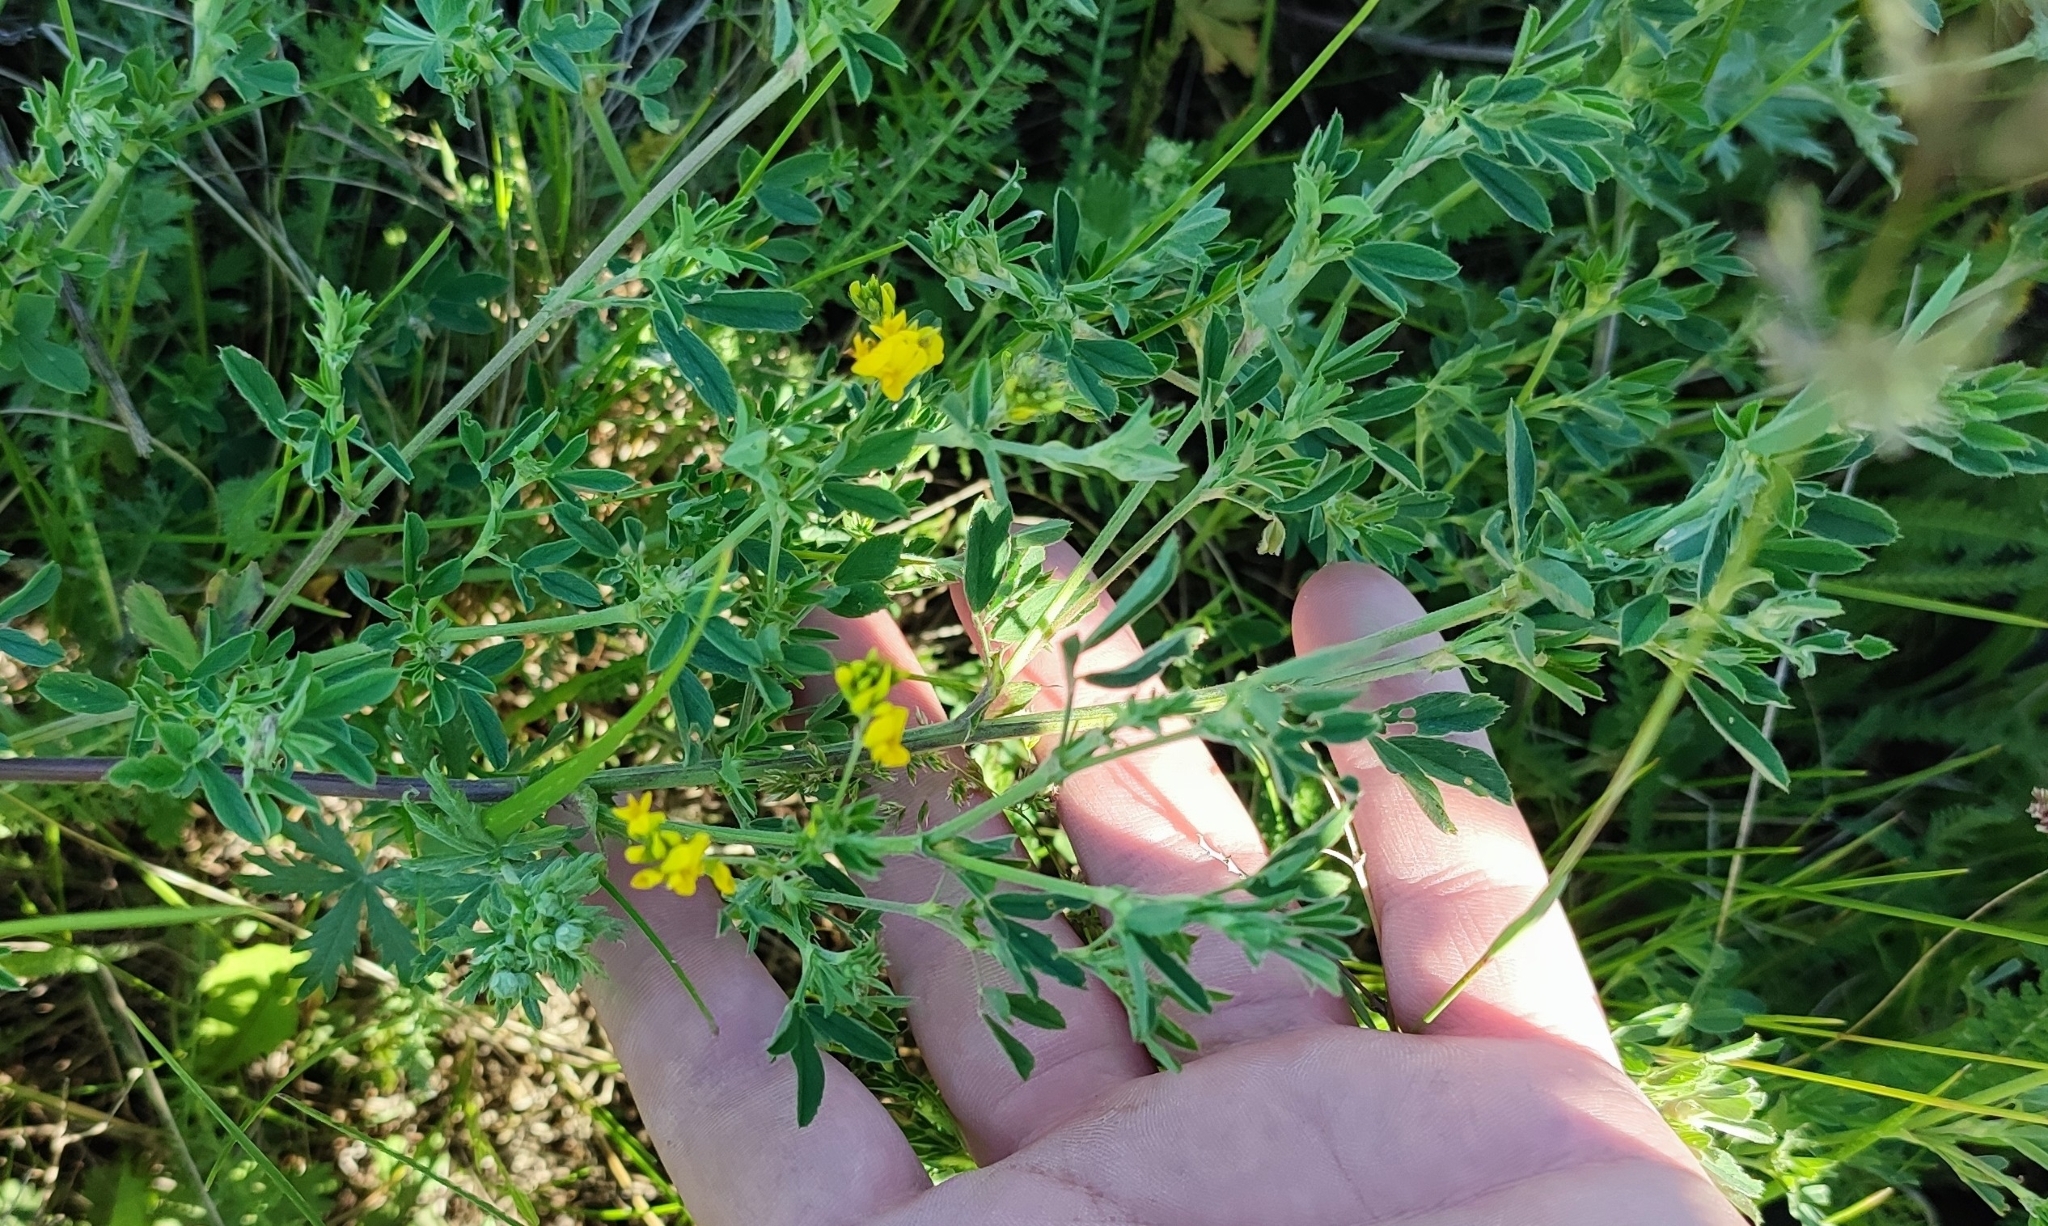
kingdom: Plantae
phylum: Tracheophyta
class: Magnoliopsida
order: Fabales
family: Fabaceae
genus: Medicago
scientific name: Medicago falcata
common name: Sickle medick
